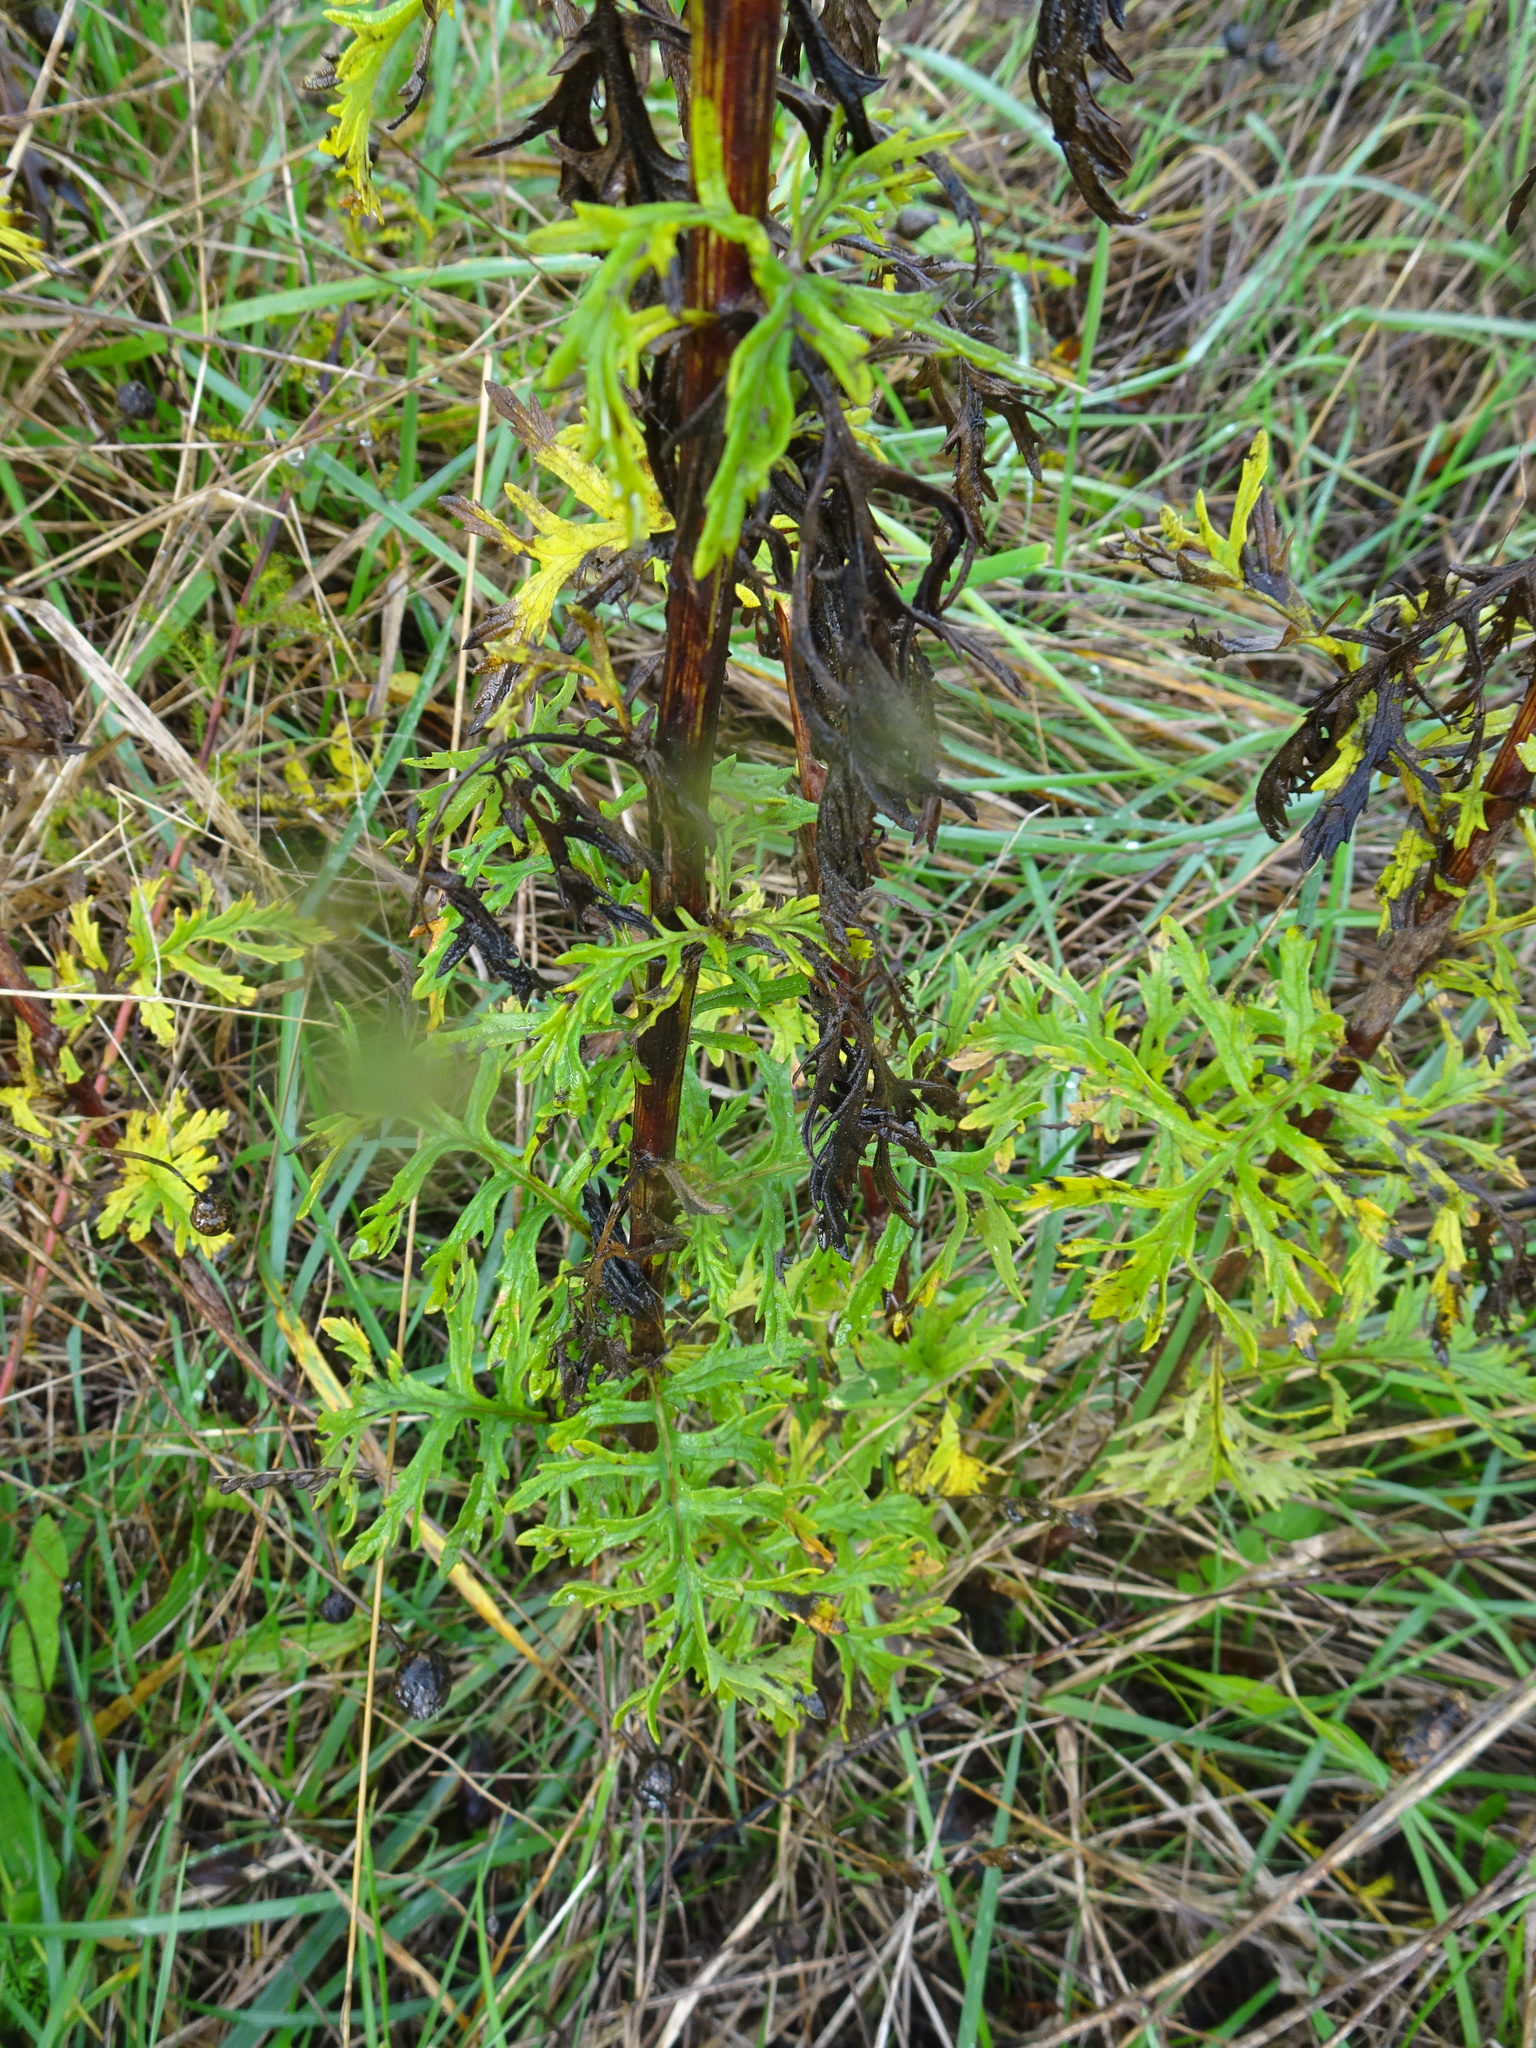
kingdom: Plantae
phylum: Tracheophyta
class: Magnoliopsida
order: Asterales
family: Asteraceae
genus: Jacobaea
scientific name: Jacobaea erucifolia
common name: Hoary ragwort
